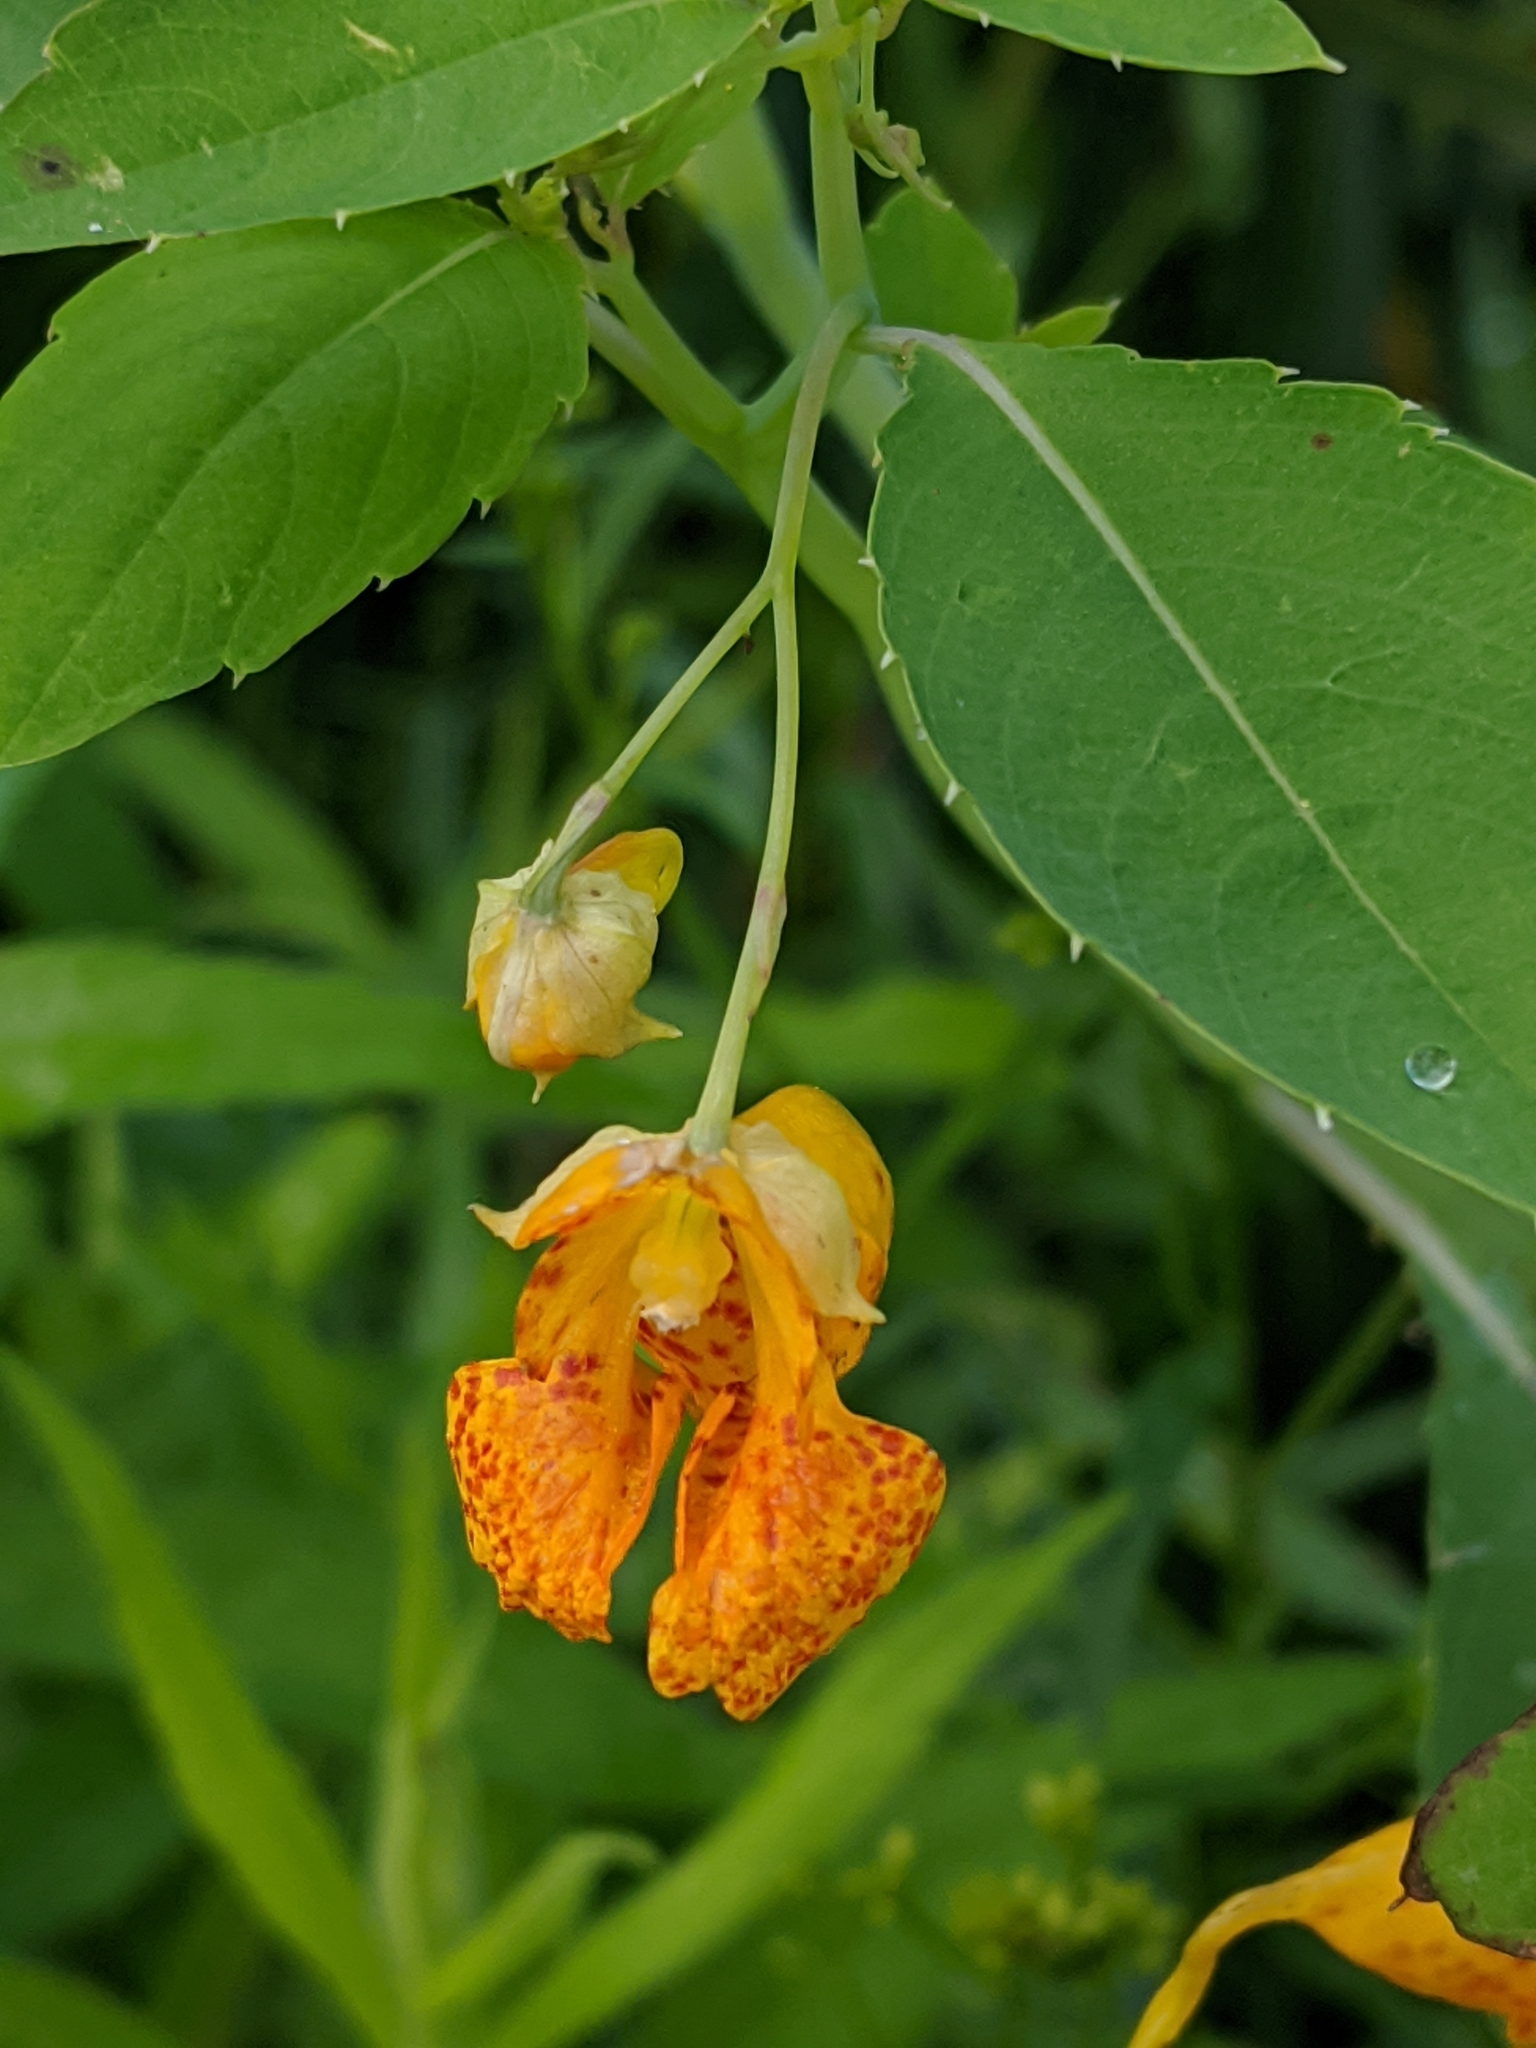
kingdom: Plantae
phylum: Tracheophyta
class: Magnoliopsida
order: Ericales
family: Balsaminaceae
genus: Impatiens
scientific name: Impatiens capensis
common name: Orange balsam
